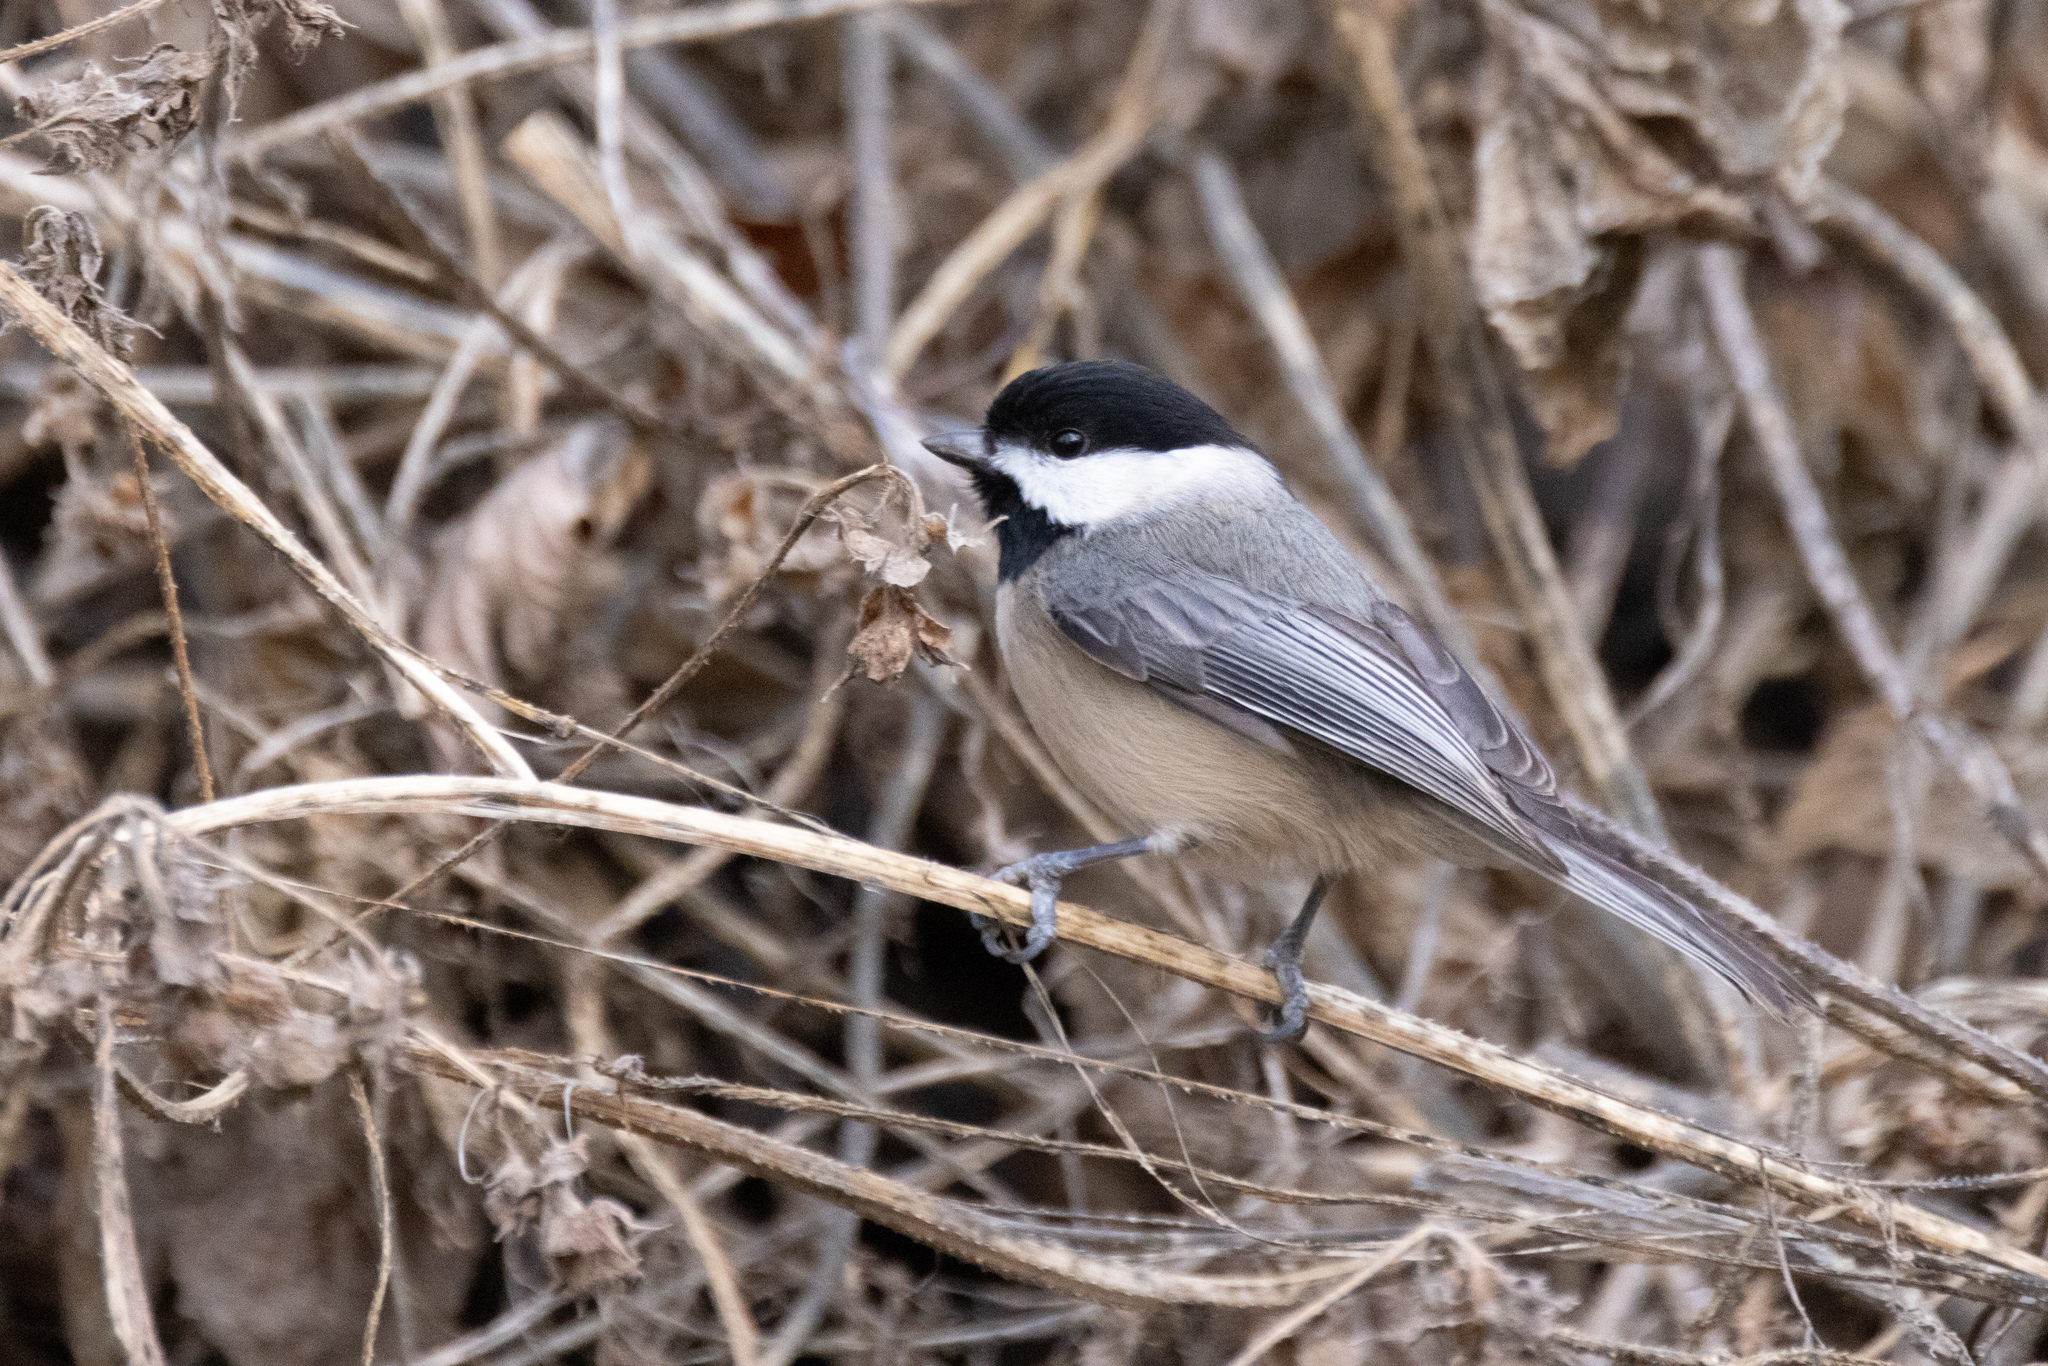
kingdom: Animalia
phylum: Chordata
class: Aves
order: Passeriformes
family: Paridae
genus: Poecile
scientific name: Poecile carolinensis
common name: Carolina chickadee
